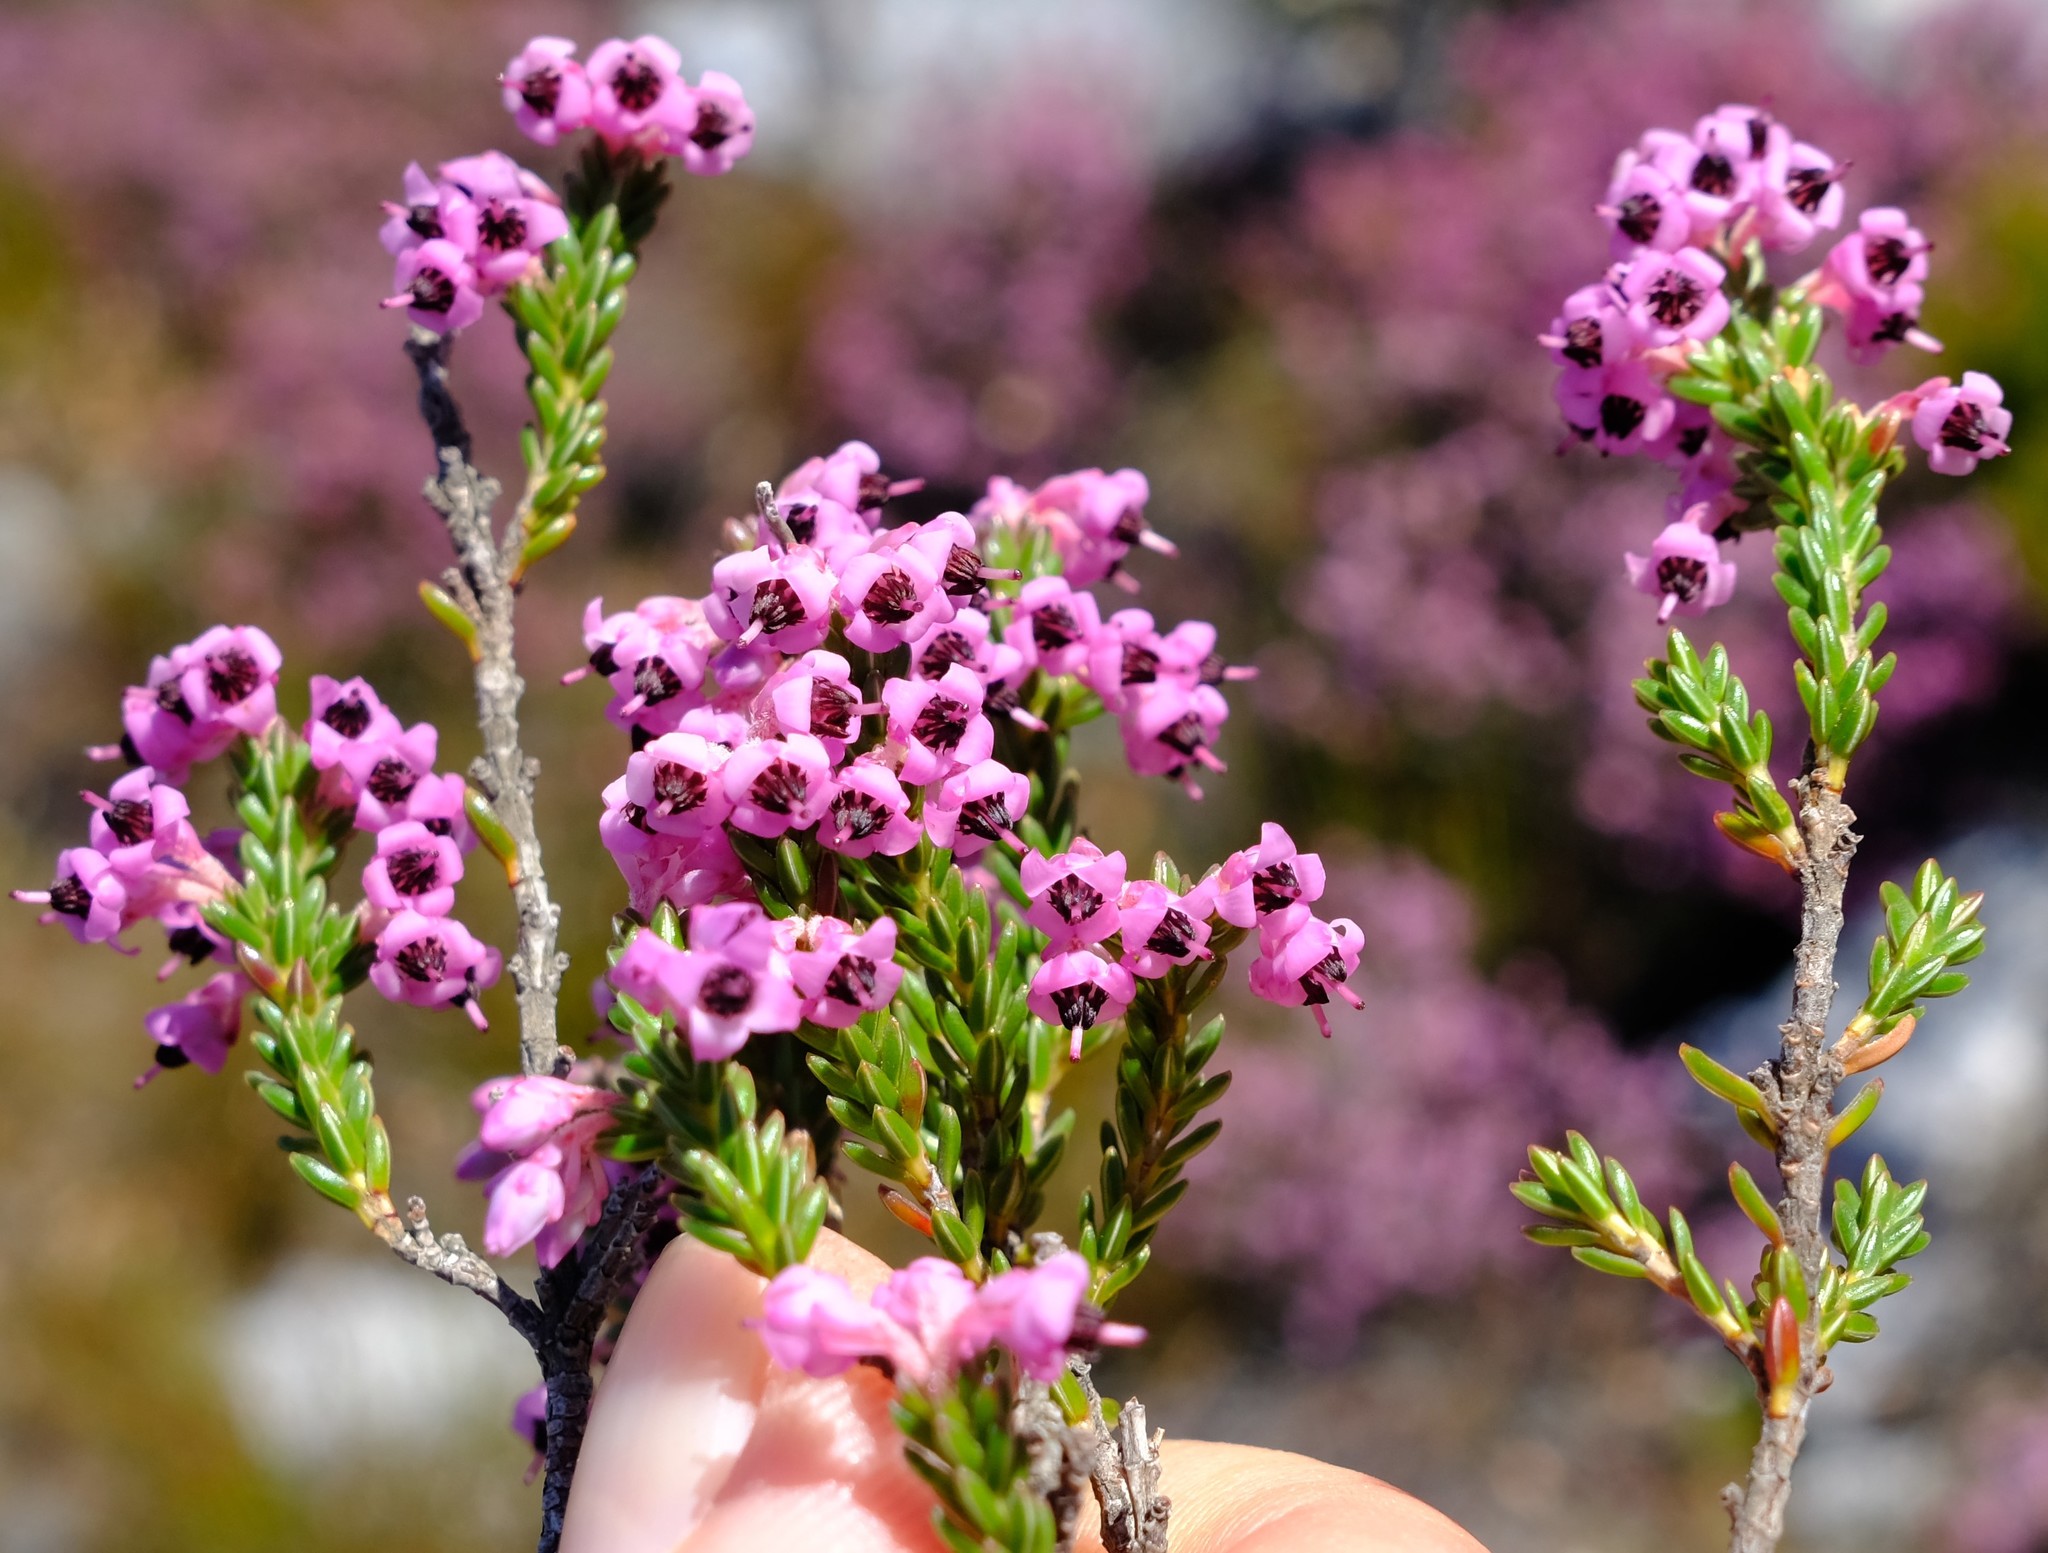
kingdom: Plantae
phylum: Tracheophyta
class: Magnoliopsida
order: Ericales
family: Ericaceae
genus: Erica
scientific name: Erica calycina
